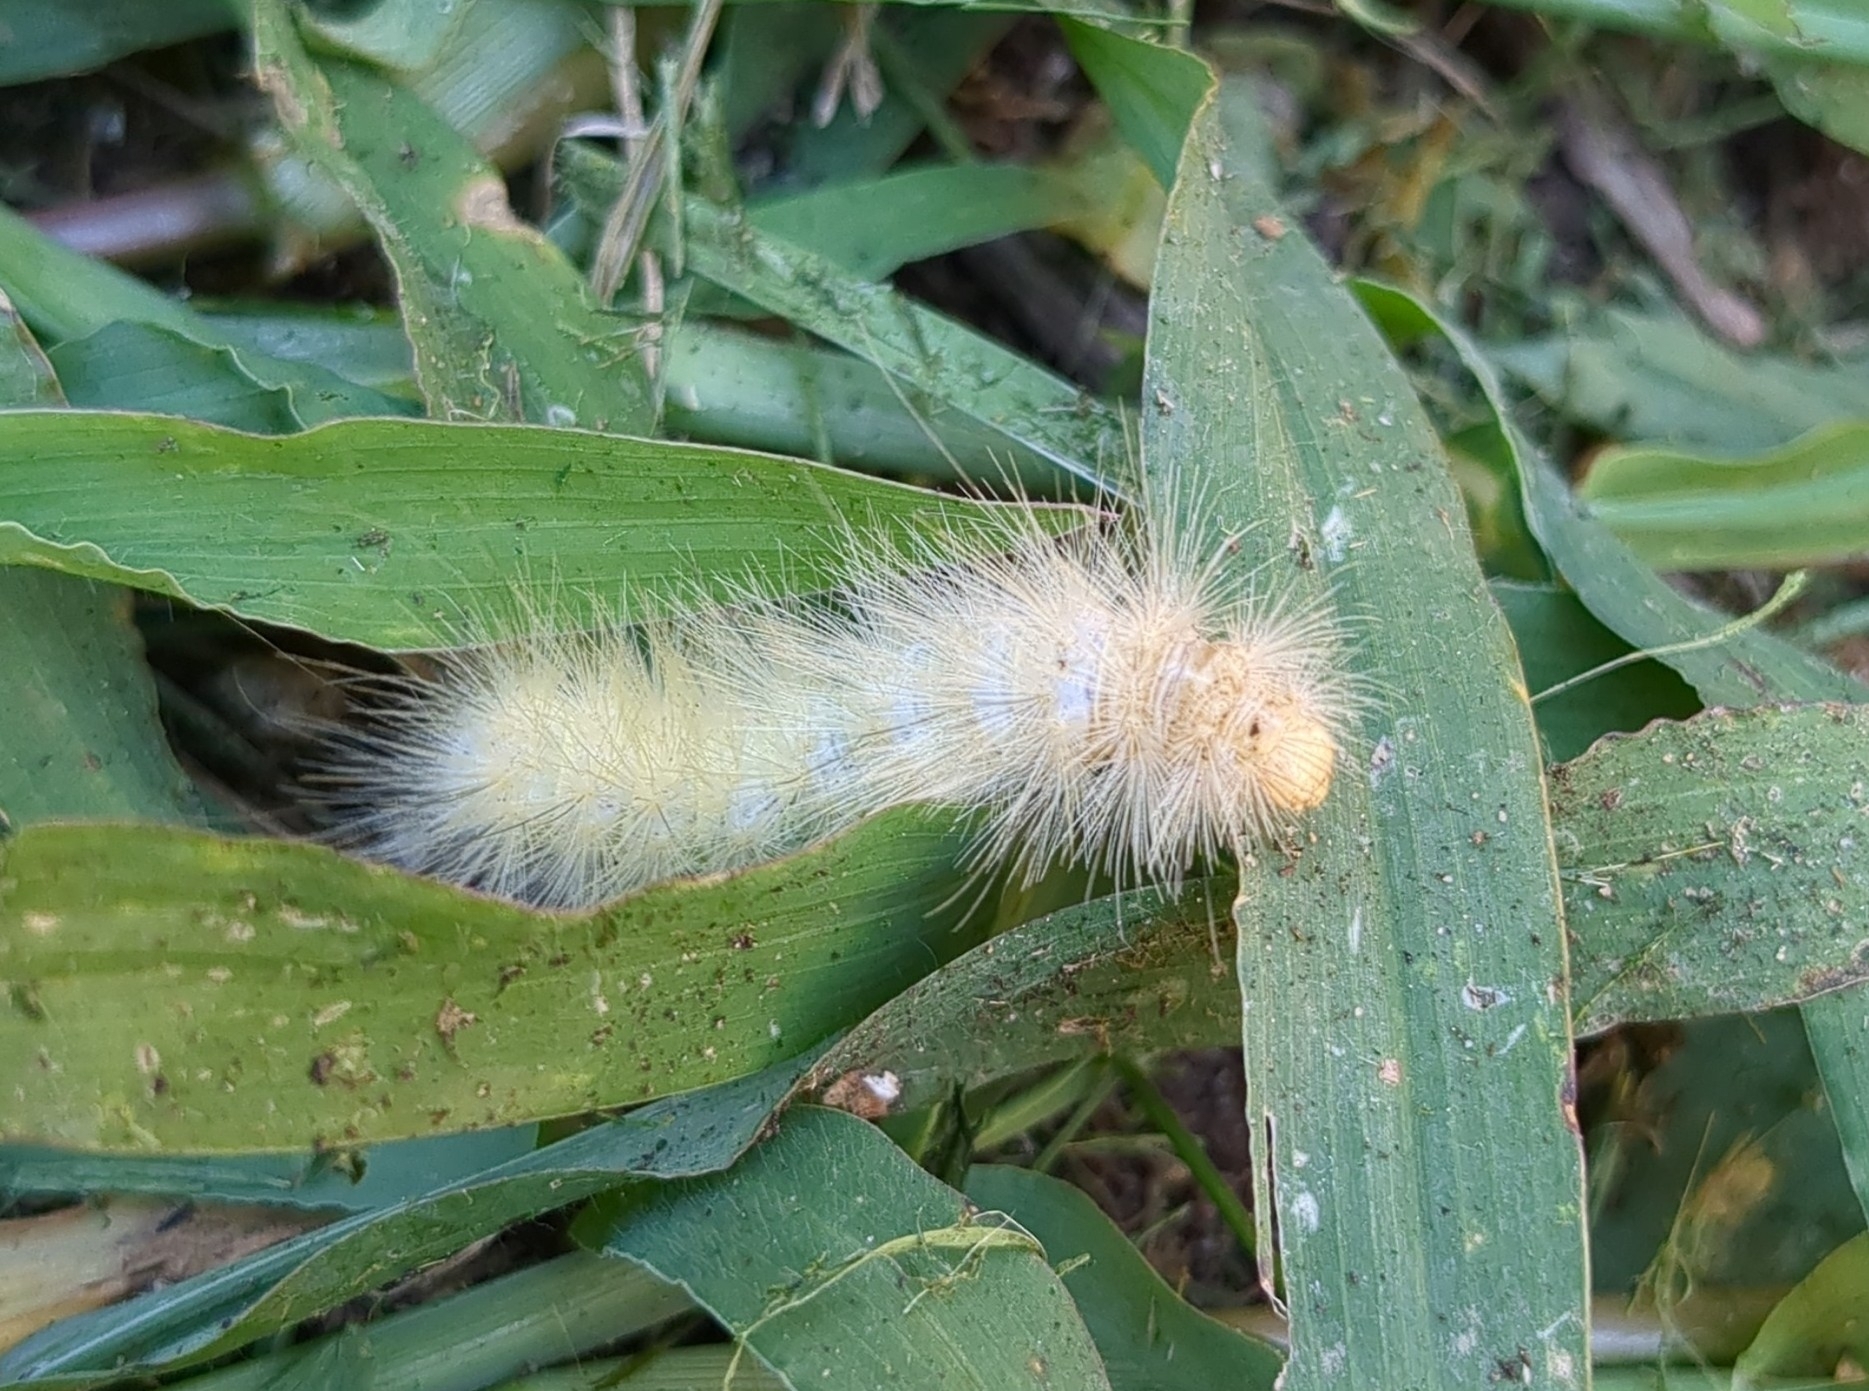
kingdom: Animalia
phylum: Arthropoda
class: Insecta
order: Lepidoptera
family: Erebidae
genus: Spilosoma
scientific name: Spilosoma virginica
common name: Virginia tiger moth
